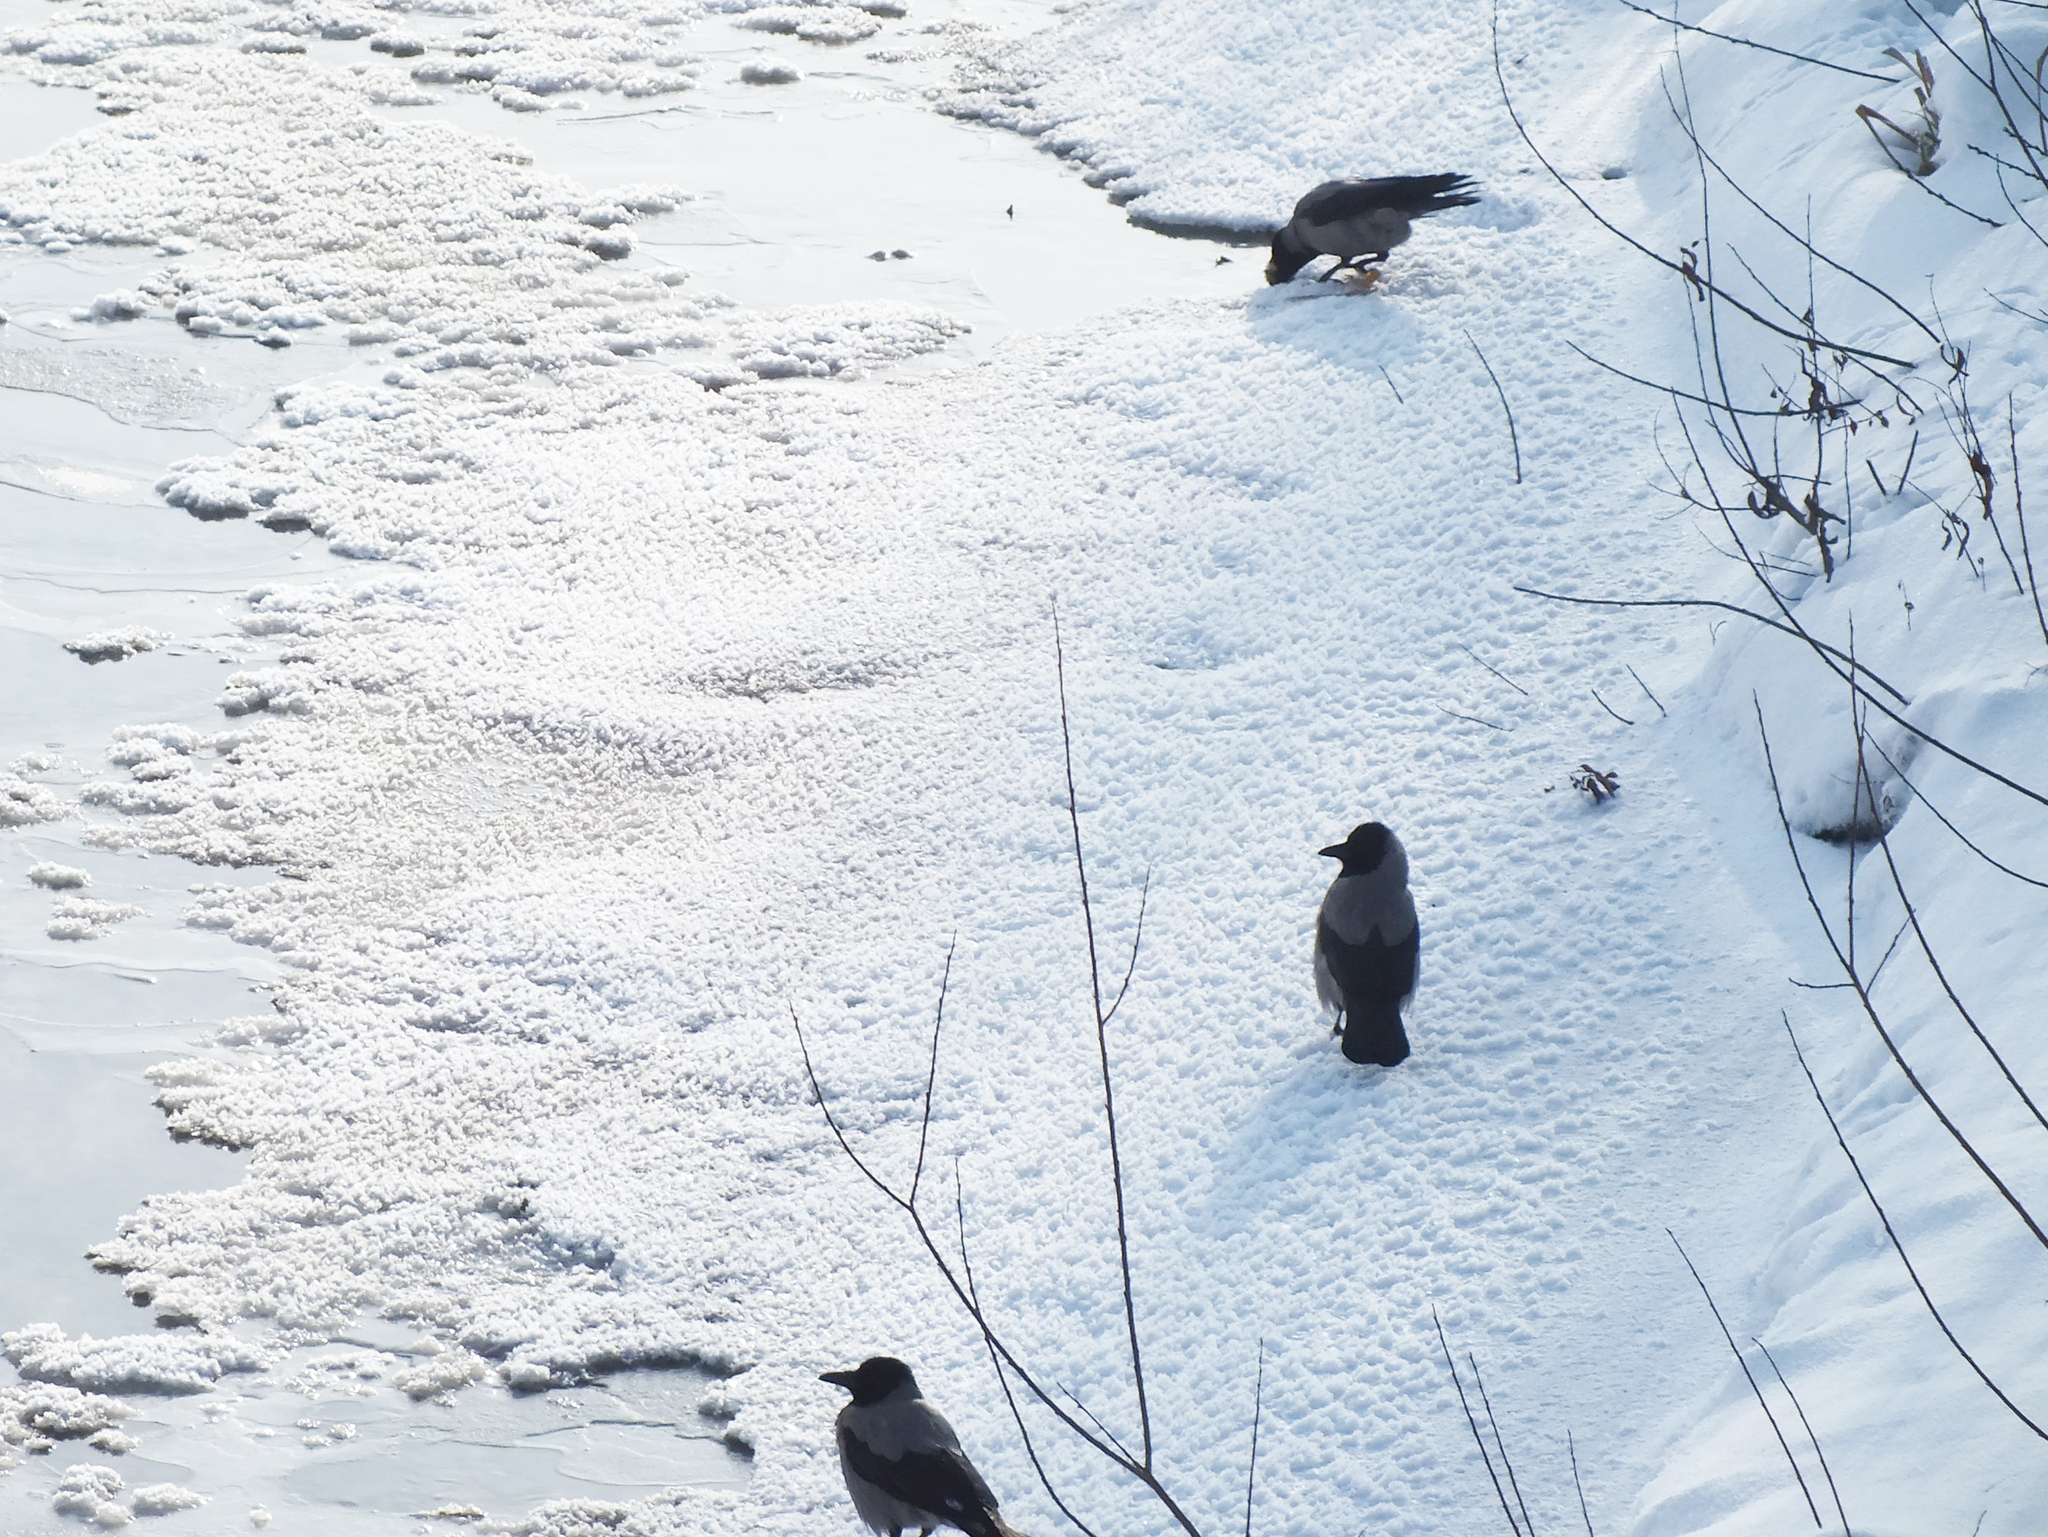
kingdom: Animalia
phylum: Chordata
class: Aves
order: Passeriformes
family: Corvidae
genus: Corvus
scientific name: Corvus cornix
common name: Hooded crow
